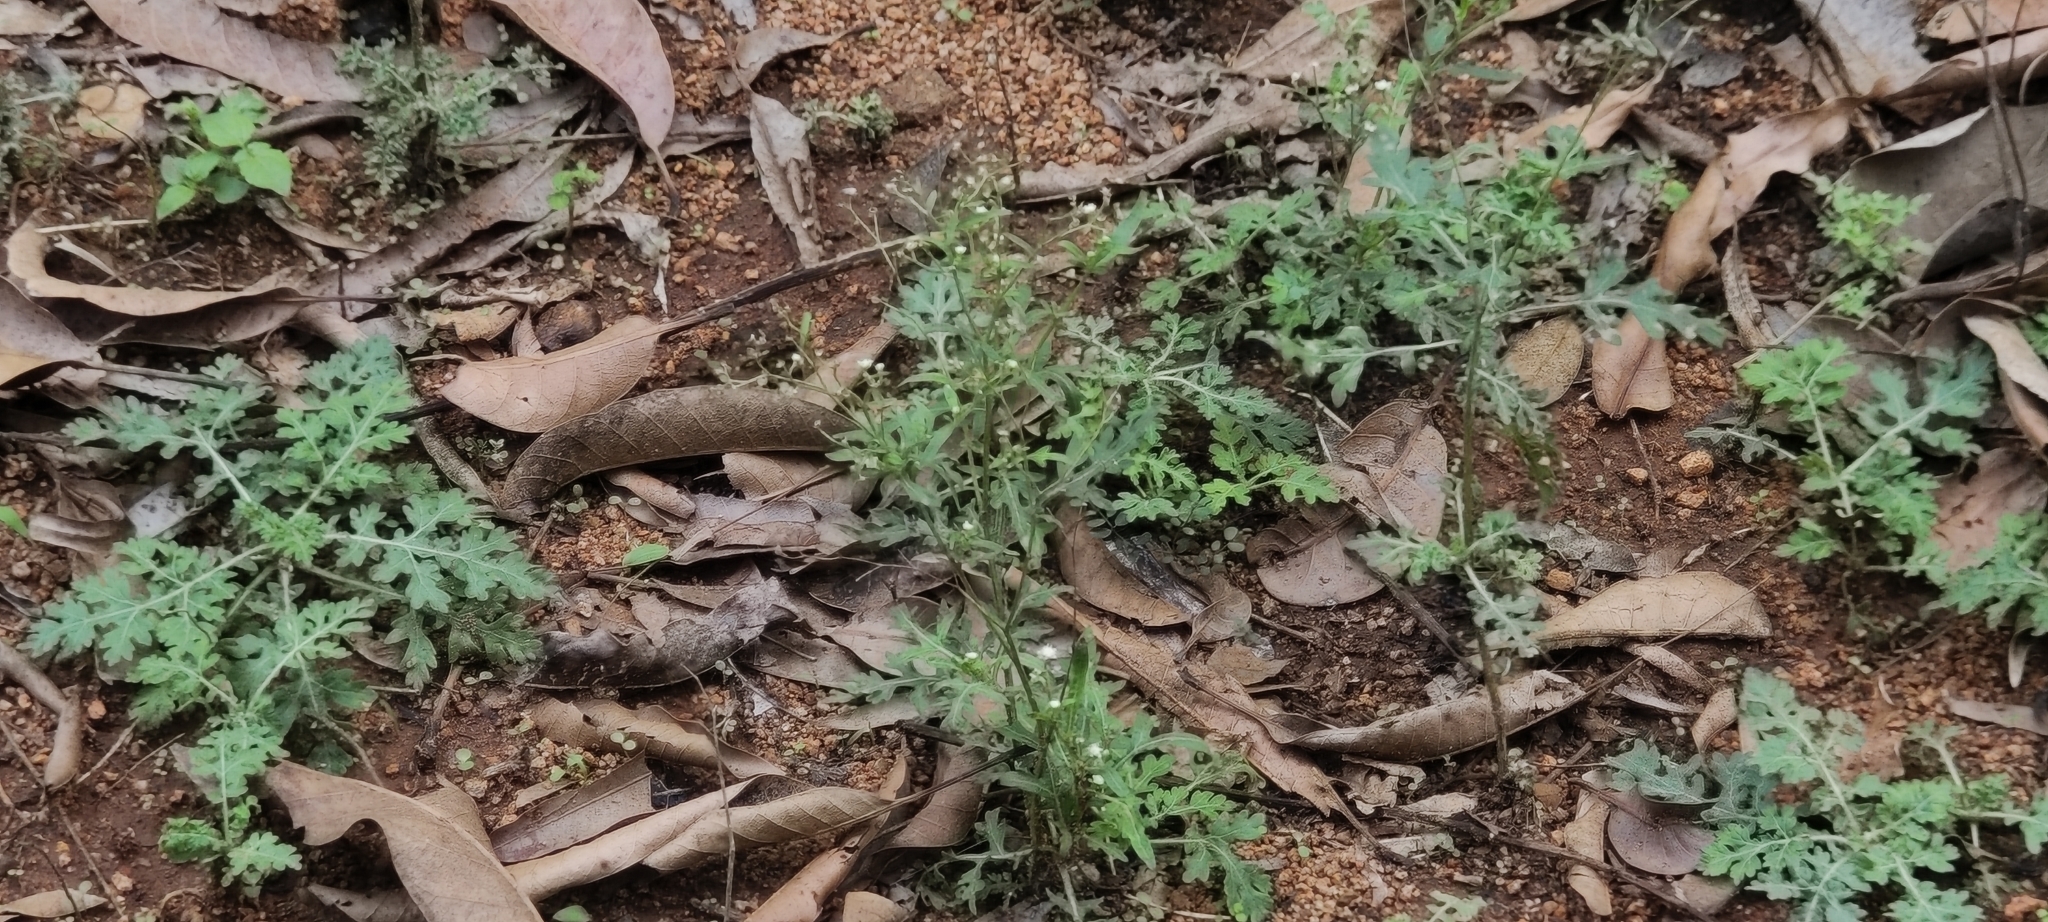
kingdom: Plantae
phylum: Tracheophyta
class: Magnoliopsida
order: Asterales
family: Asteraceae
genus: Parthenium
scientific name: Parthenium hysterophorus
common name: Santa maria feverfew
